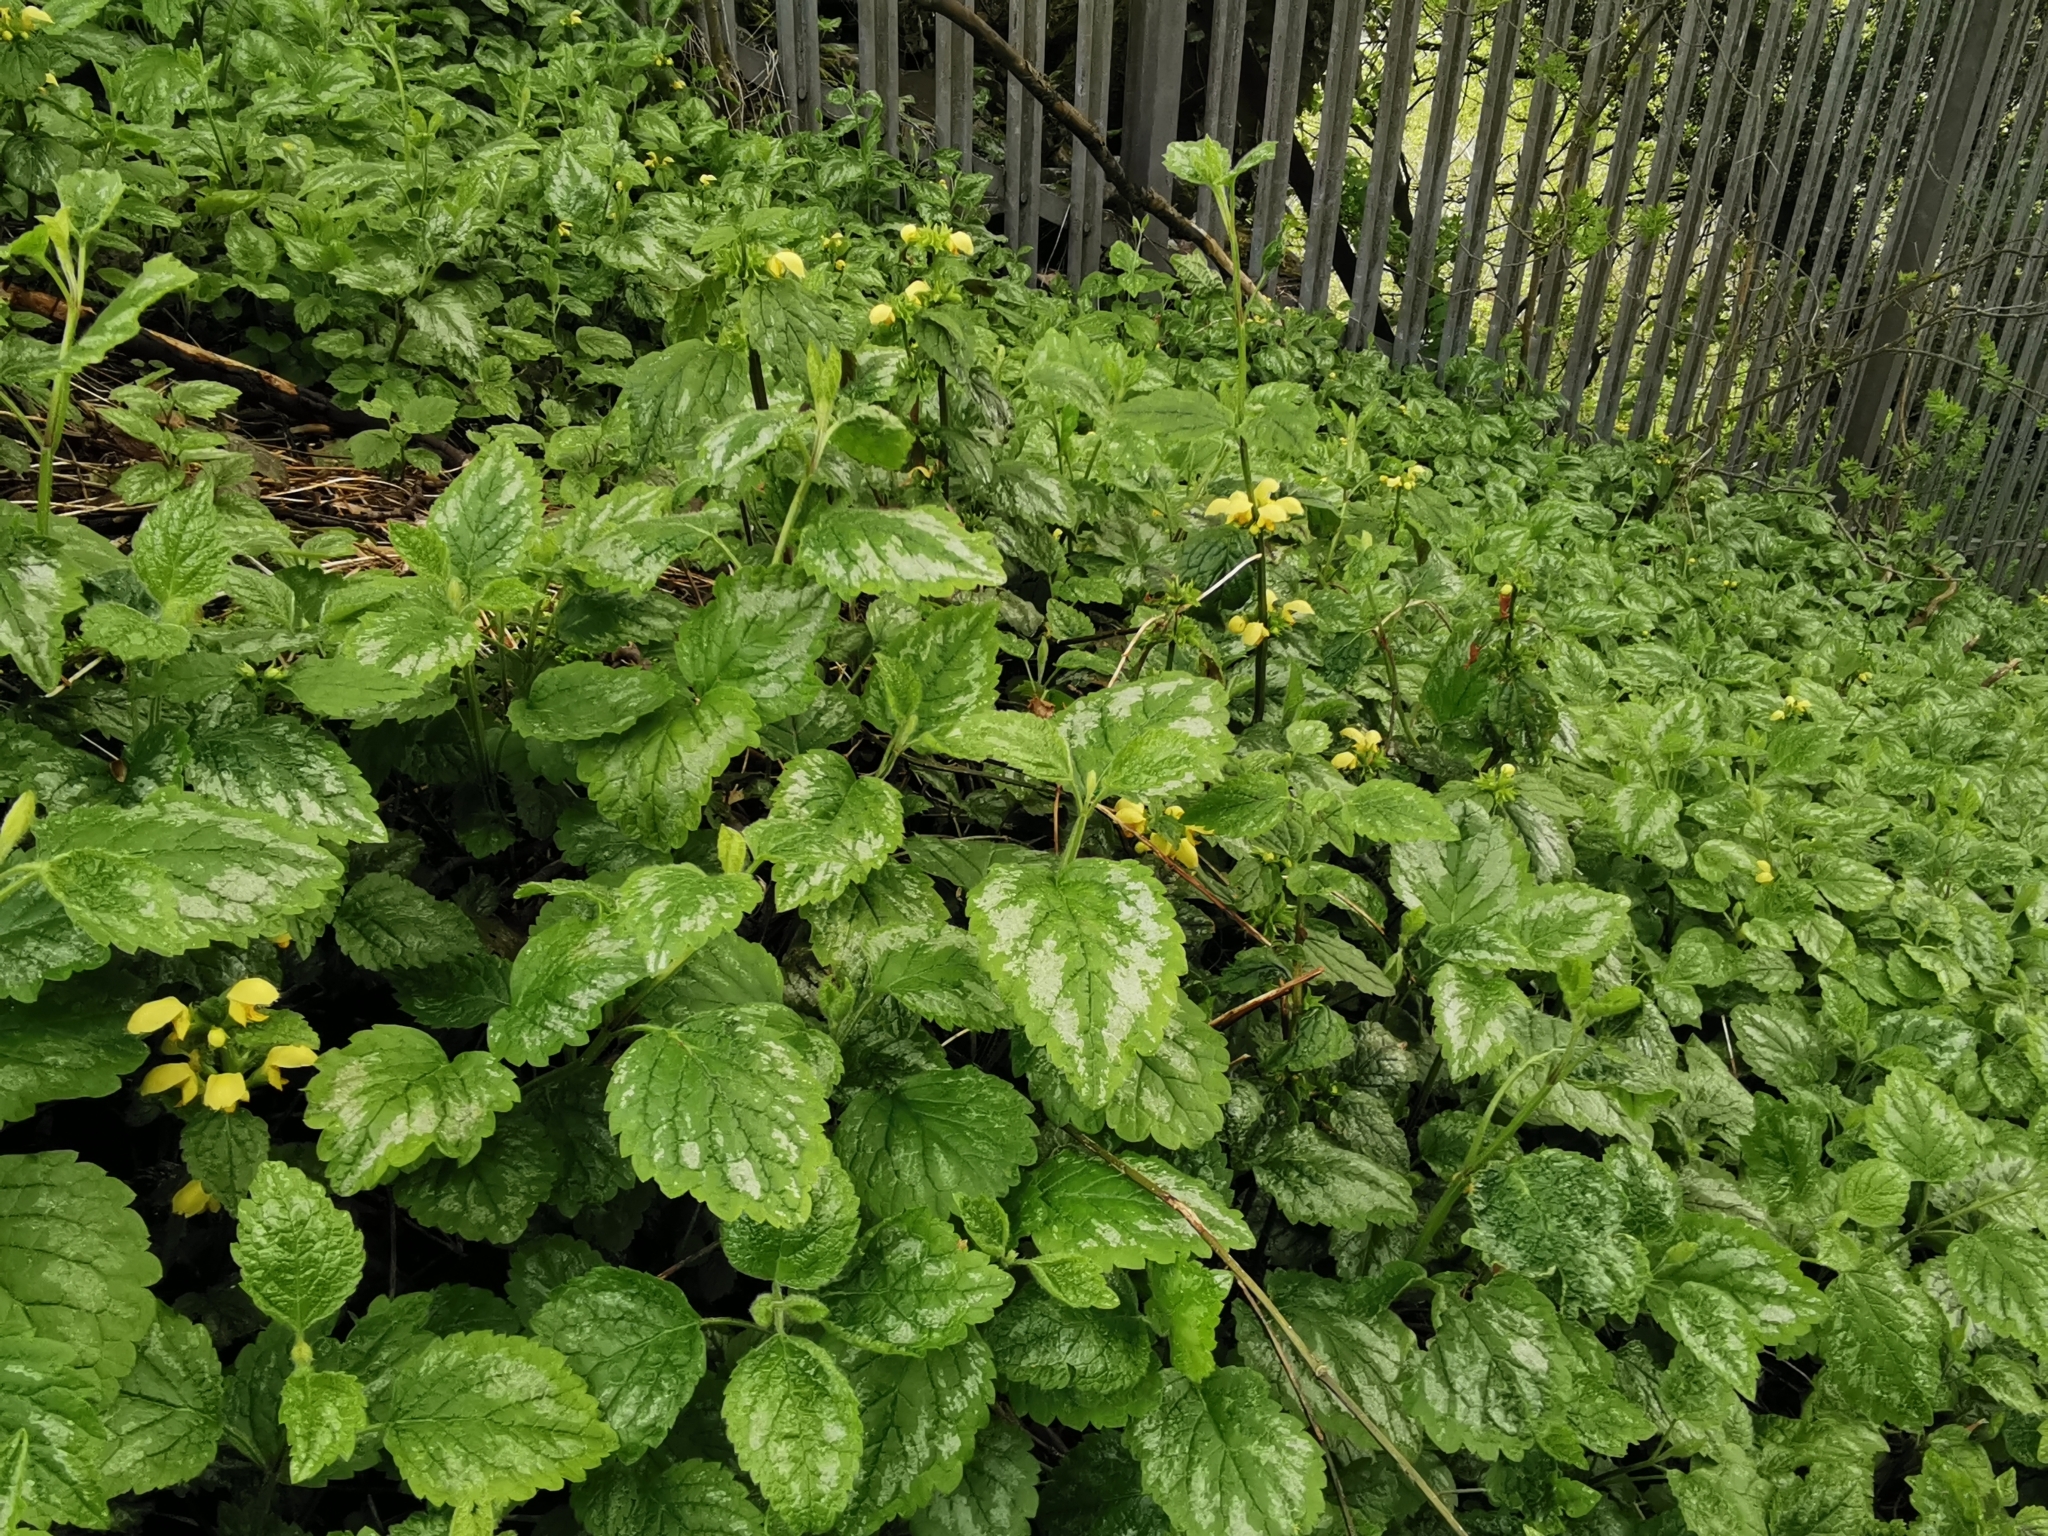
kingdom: Plantae
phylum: Tracheophyta
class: Magnoliopsida
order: Lamiales
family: Lamiaceae
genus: Lamium
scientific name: Lamium galeobdolon
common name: Yellow archangel
